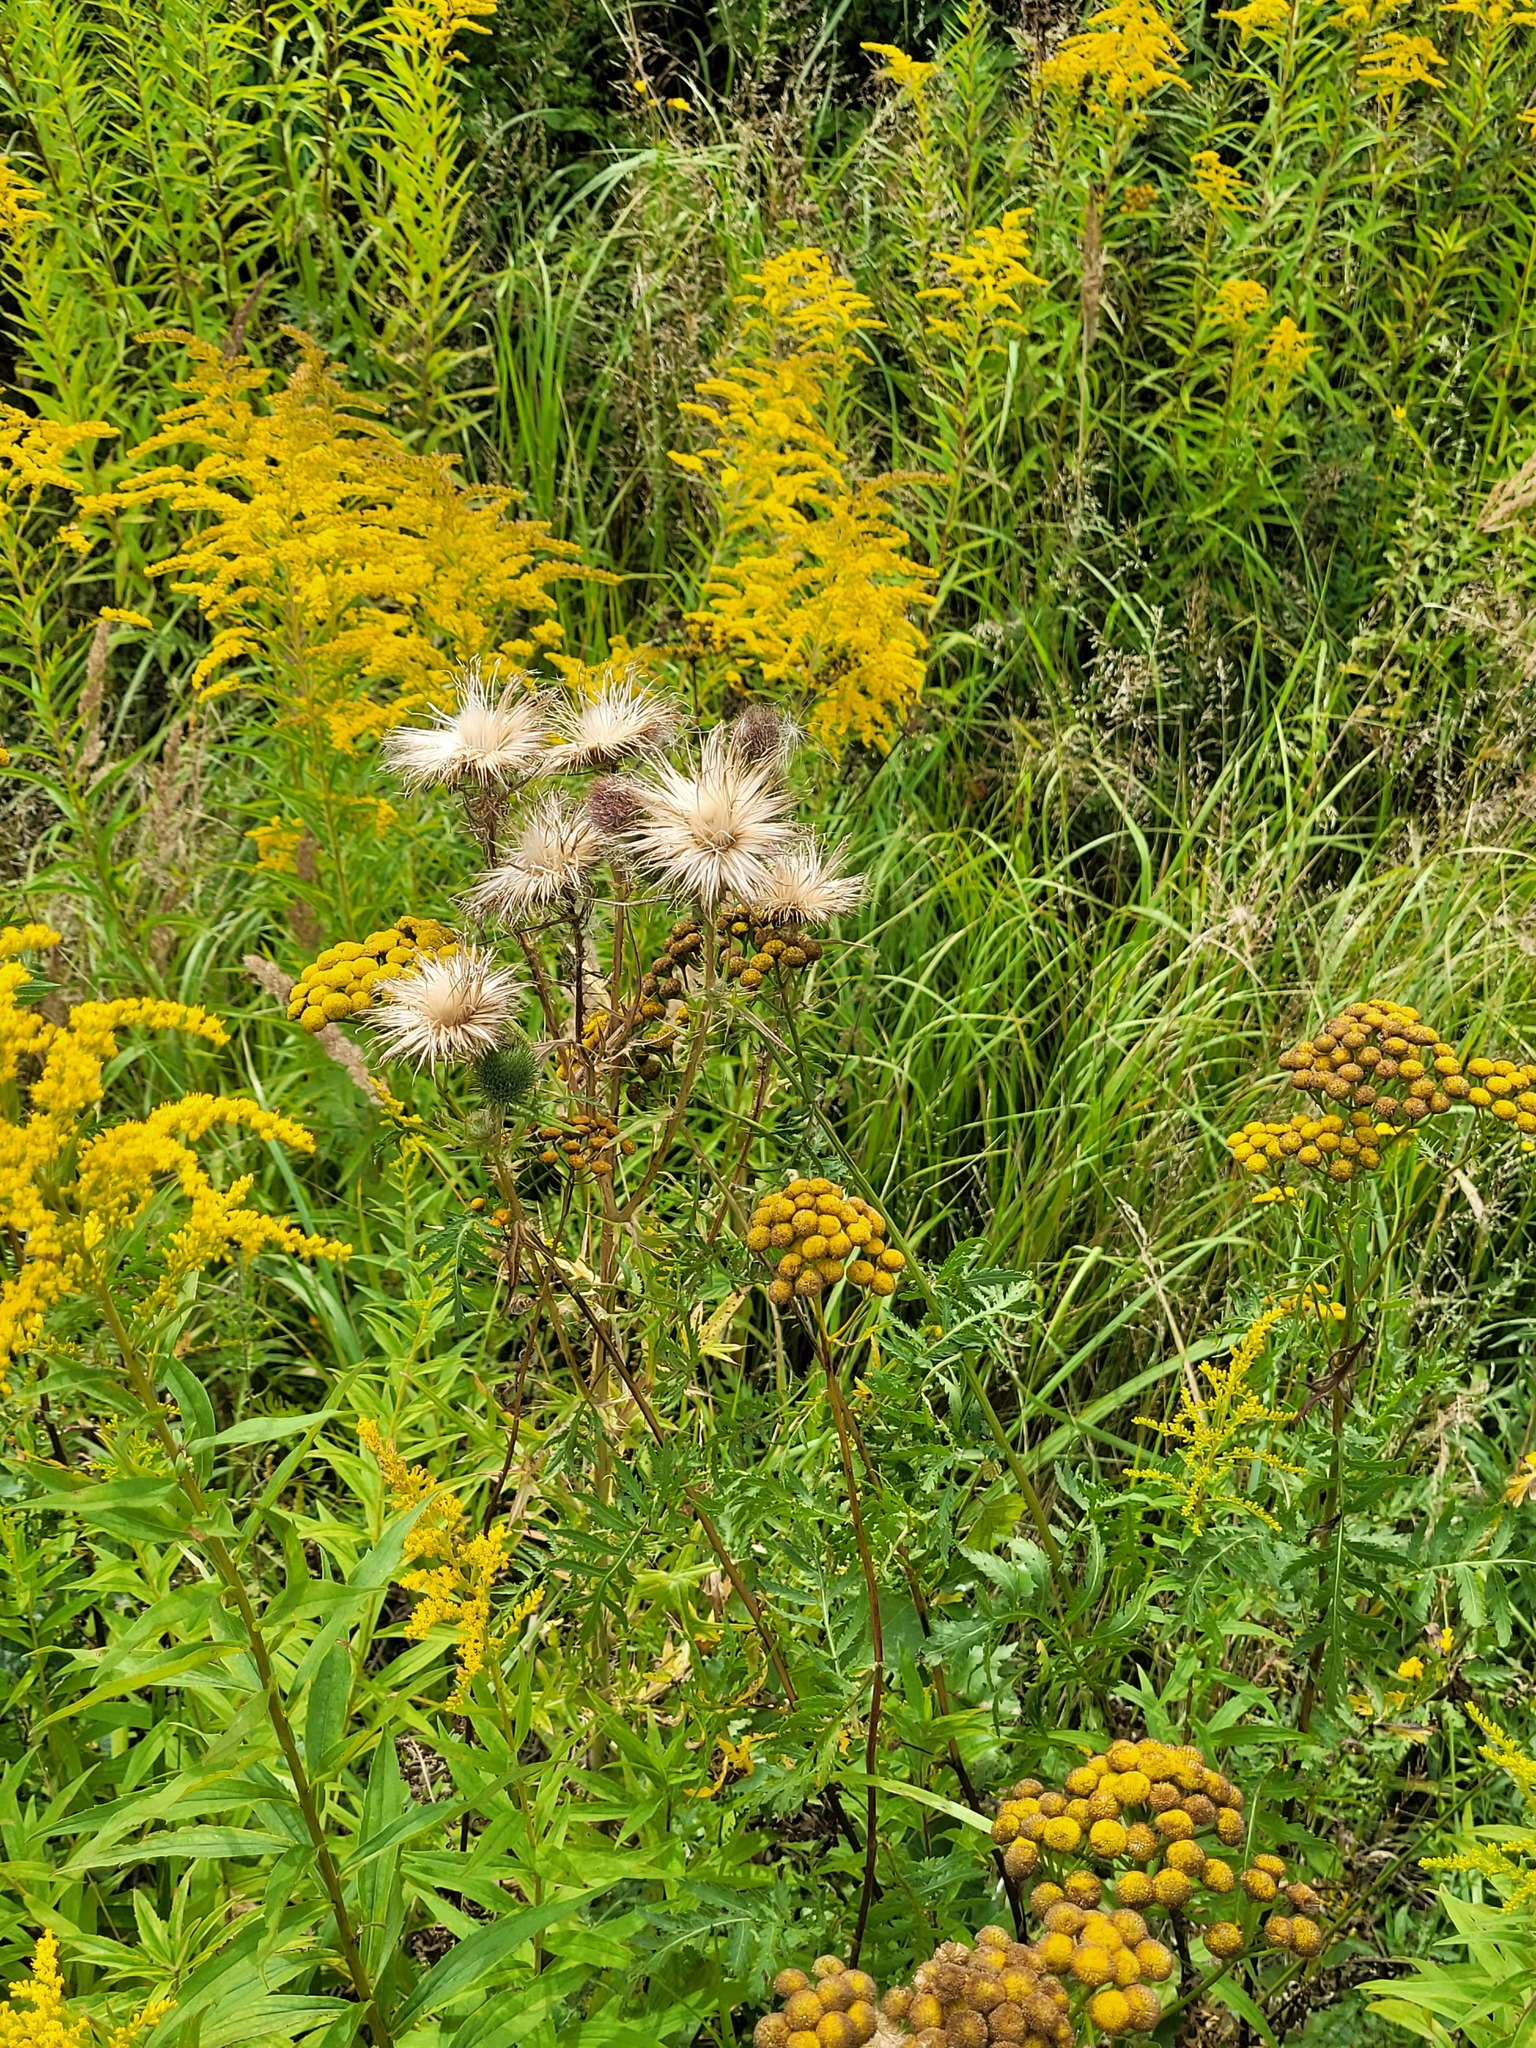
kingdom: Plantae
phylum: Tracheophyta
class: Magnoliopsida
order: Asterales
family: Asteraceae
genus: Cirsium
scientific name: Cirsium vulgare
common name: Bull thistle
